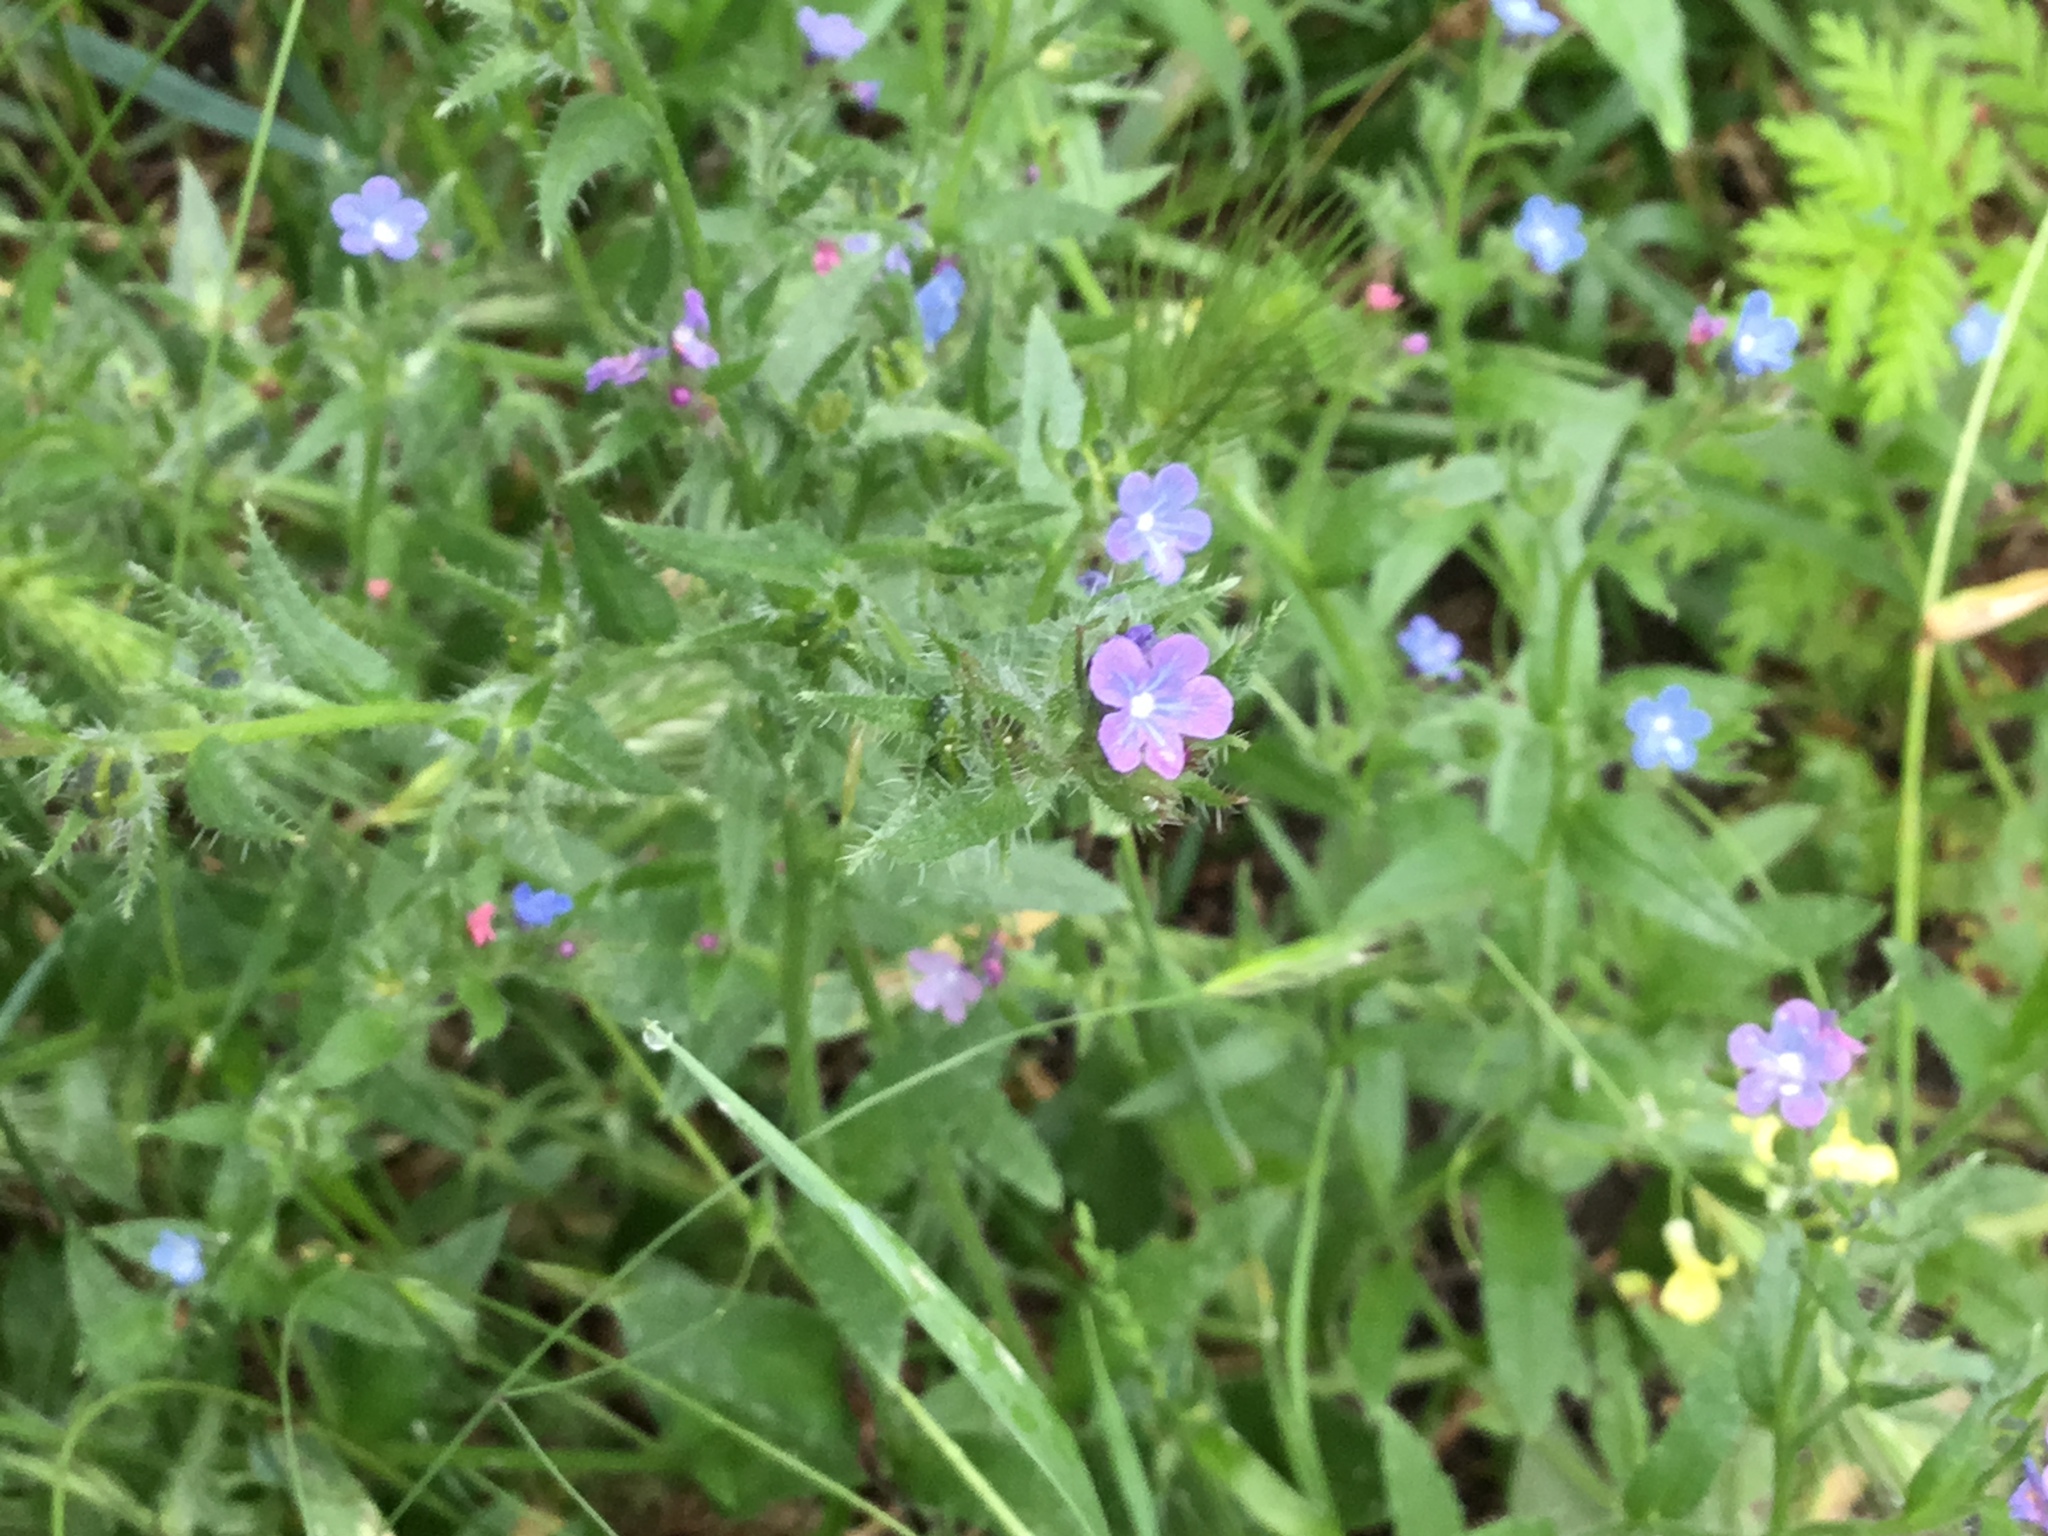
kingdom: Plantae
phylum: Tracheophyta
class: Magnoliopsida
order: Boraginales
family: Boraginaceae
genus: Lycopsis
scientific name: Lycopsis arvensis
